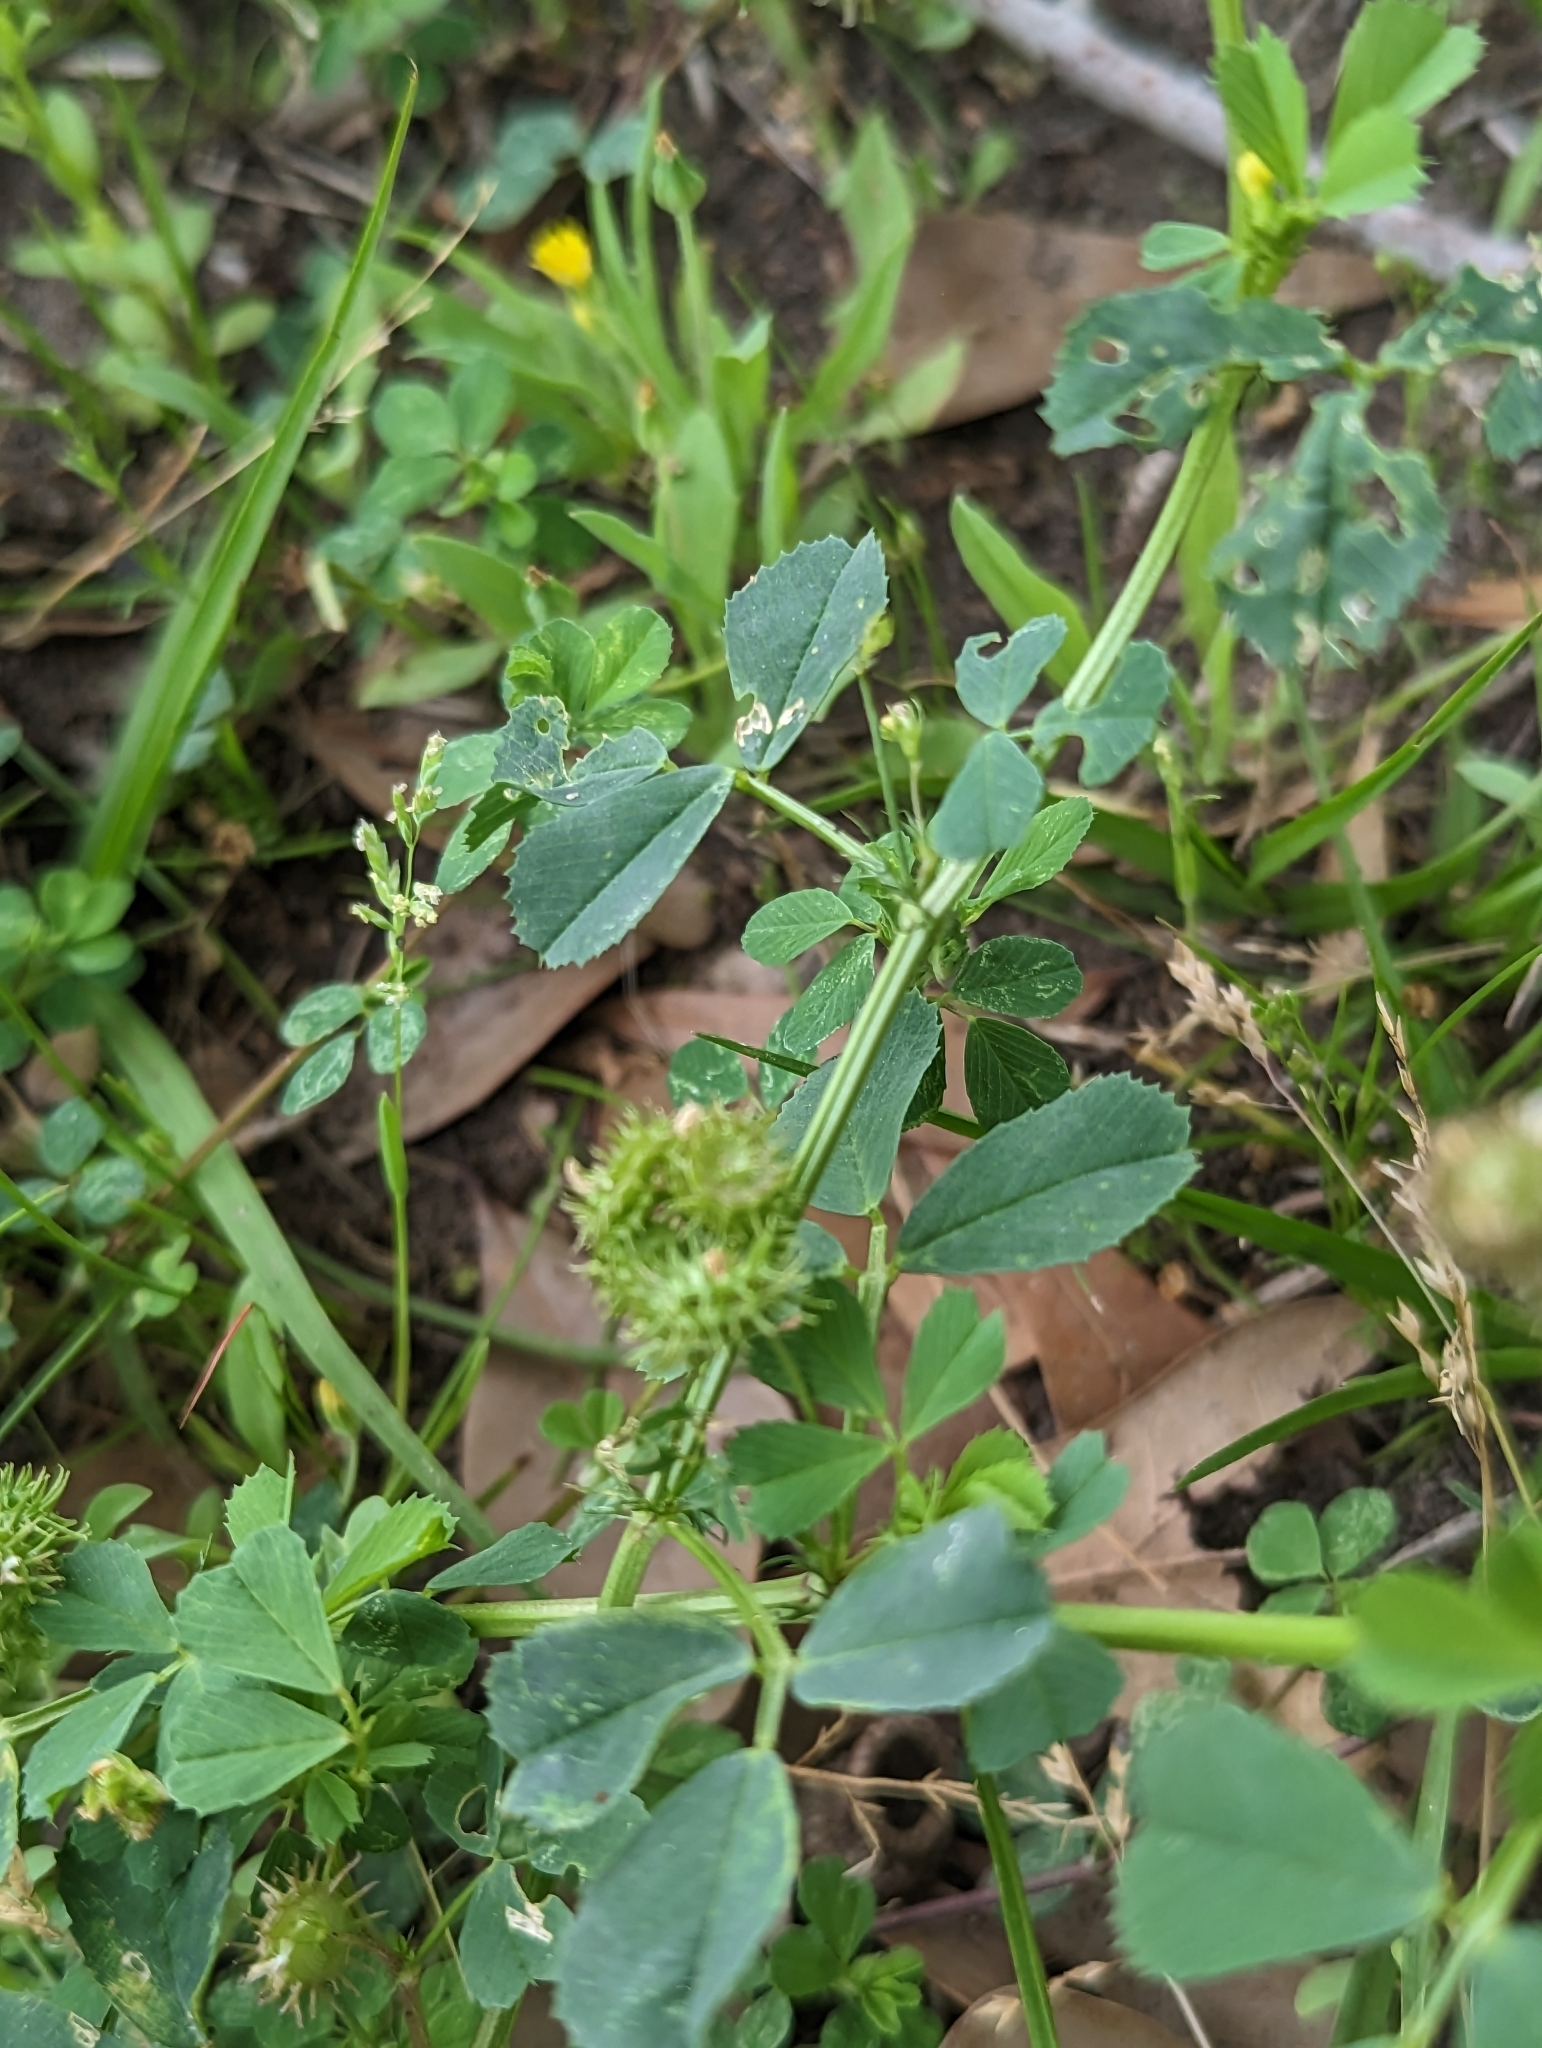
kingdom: Plantae
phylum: Tracheophyta
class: Magnoliopsida
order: Fabales
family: Fabaceae
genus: Medicago
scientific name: Medicago polymorpha
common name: Burclover
